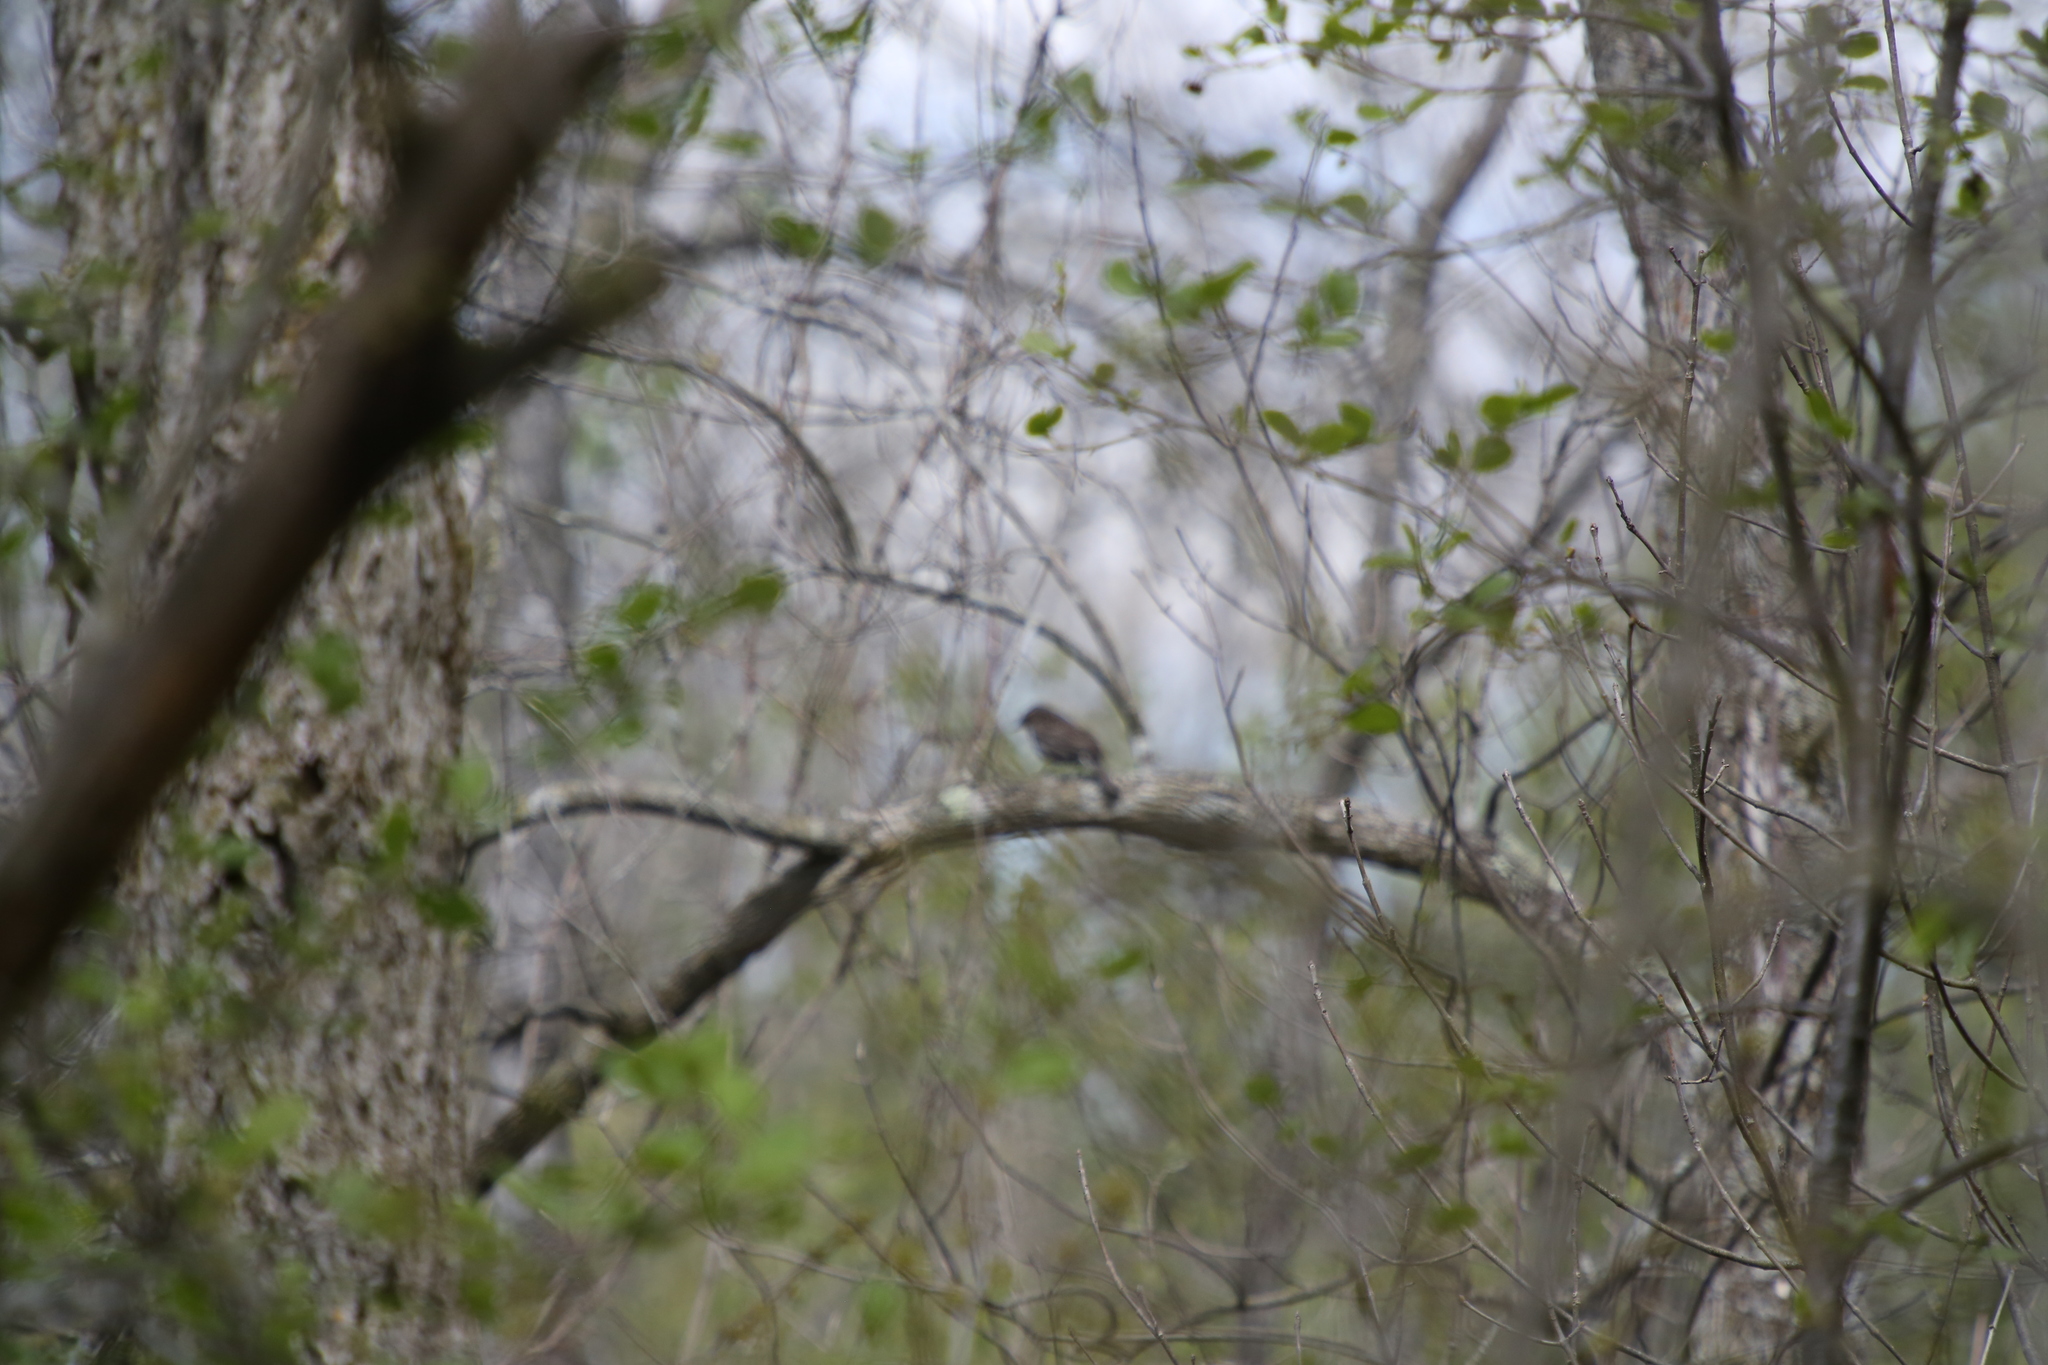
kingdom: Animalia
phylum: Chordata
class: Aves
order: Passeriformes
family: Tyrannidae
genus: Sayornis
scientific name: Sayornis phoebe
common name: Eastern phoebe
